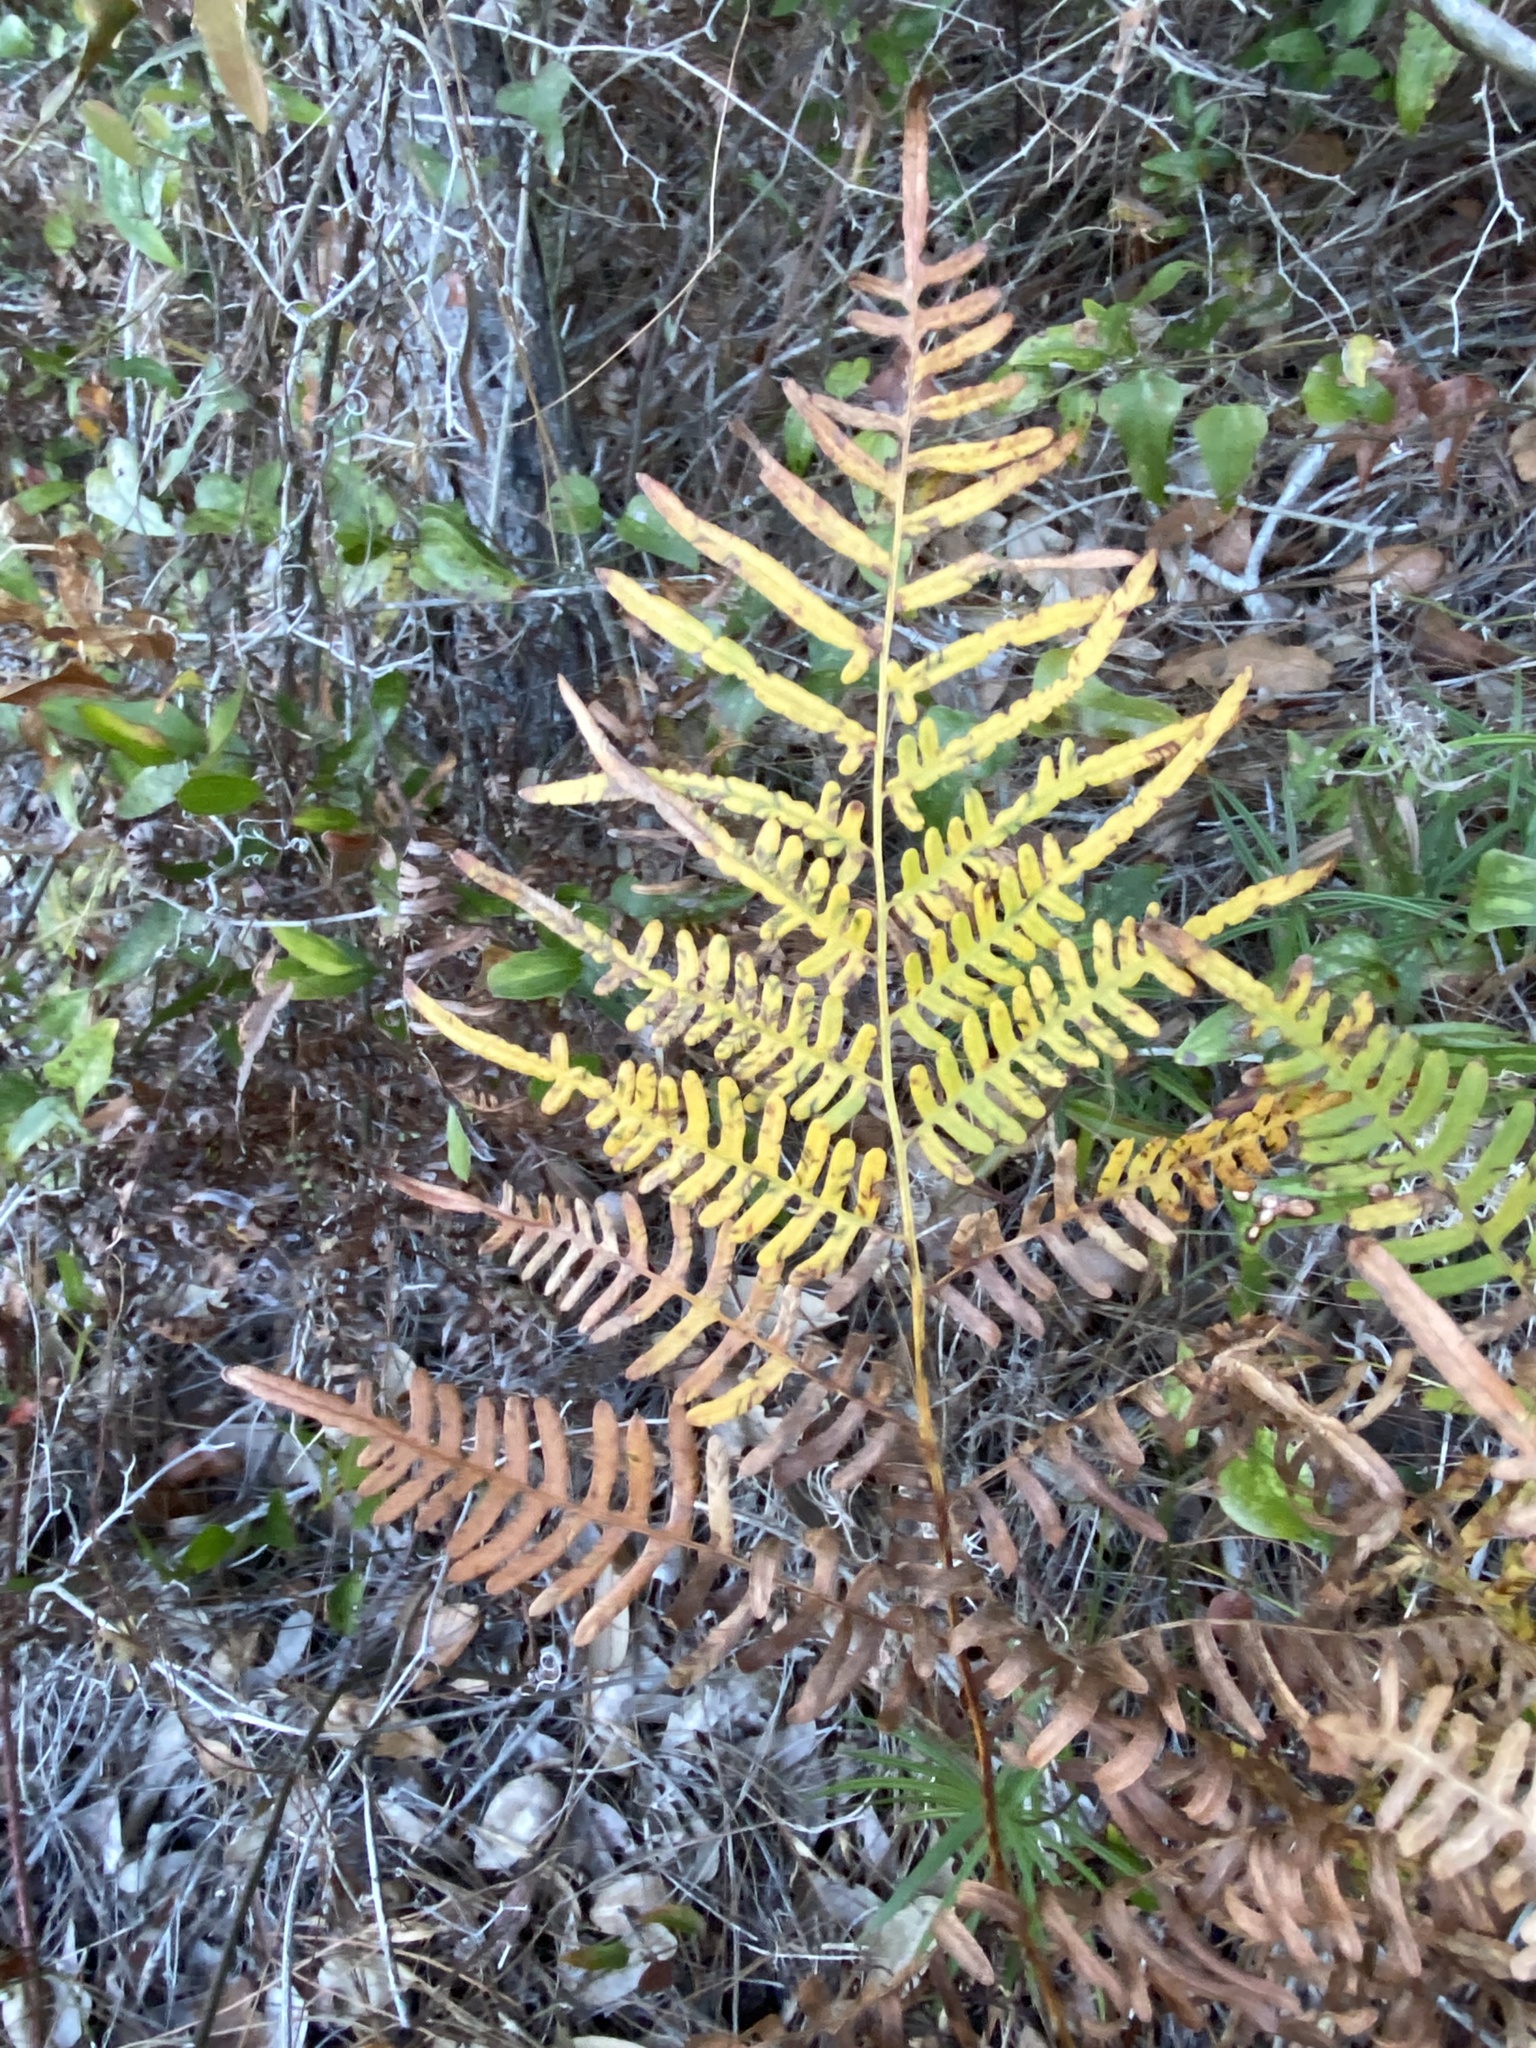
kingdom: Plantae
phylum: Tracheophyta
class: Polypodiopsida
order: Polypodiales
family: Dennstaedtiaceae
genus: Pteridium
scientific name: Pteridium aquilinum
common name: Bracken
